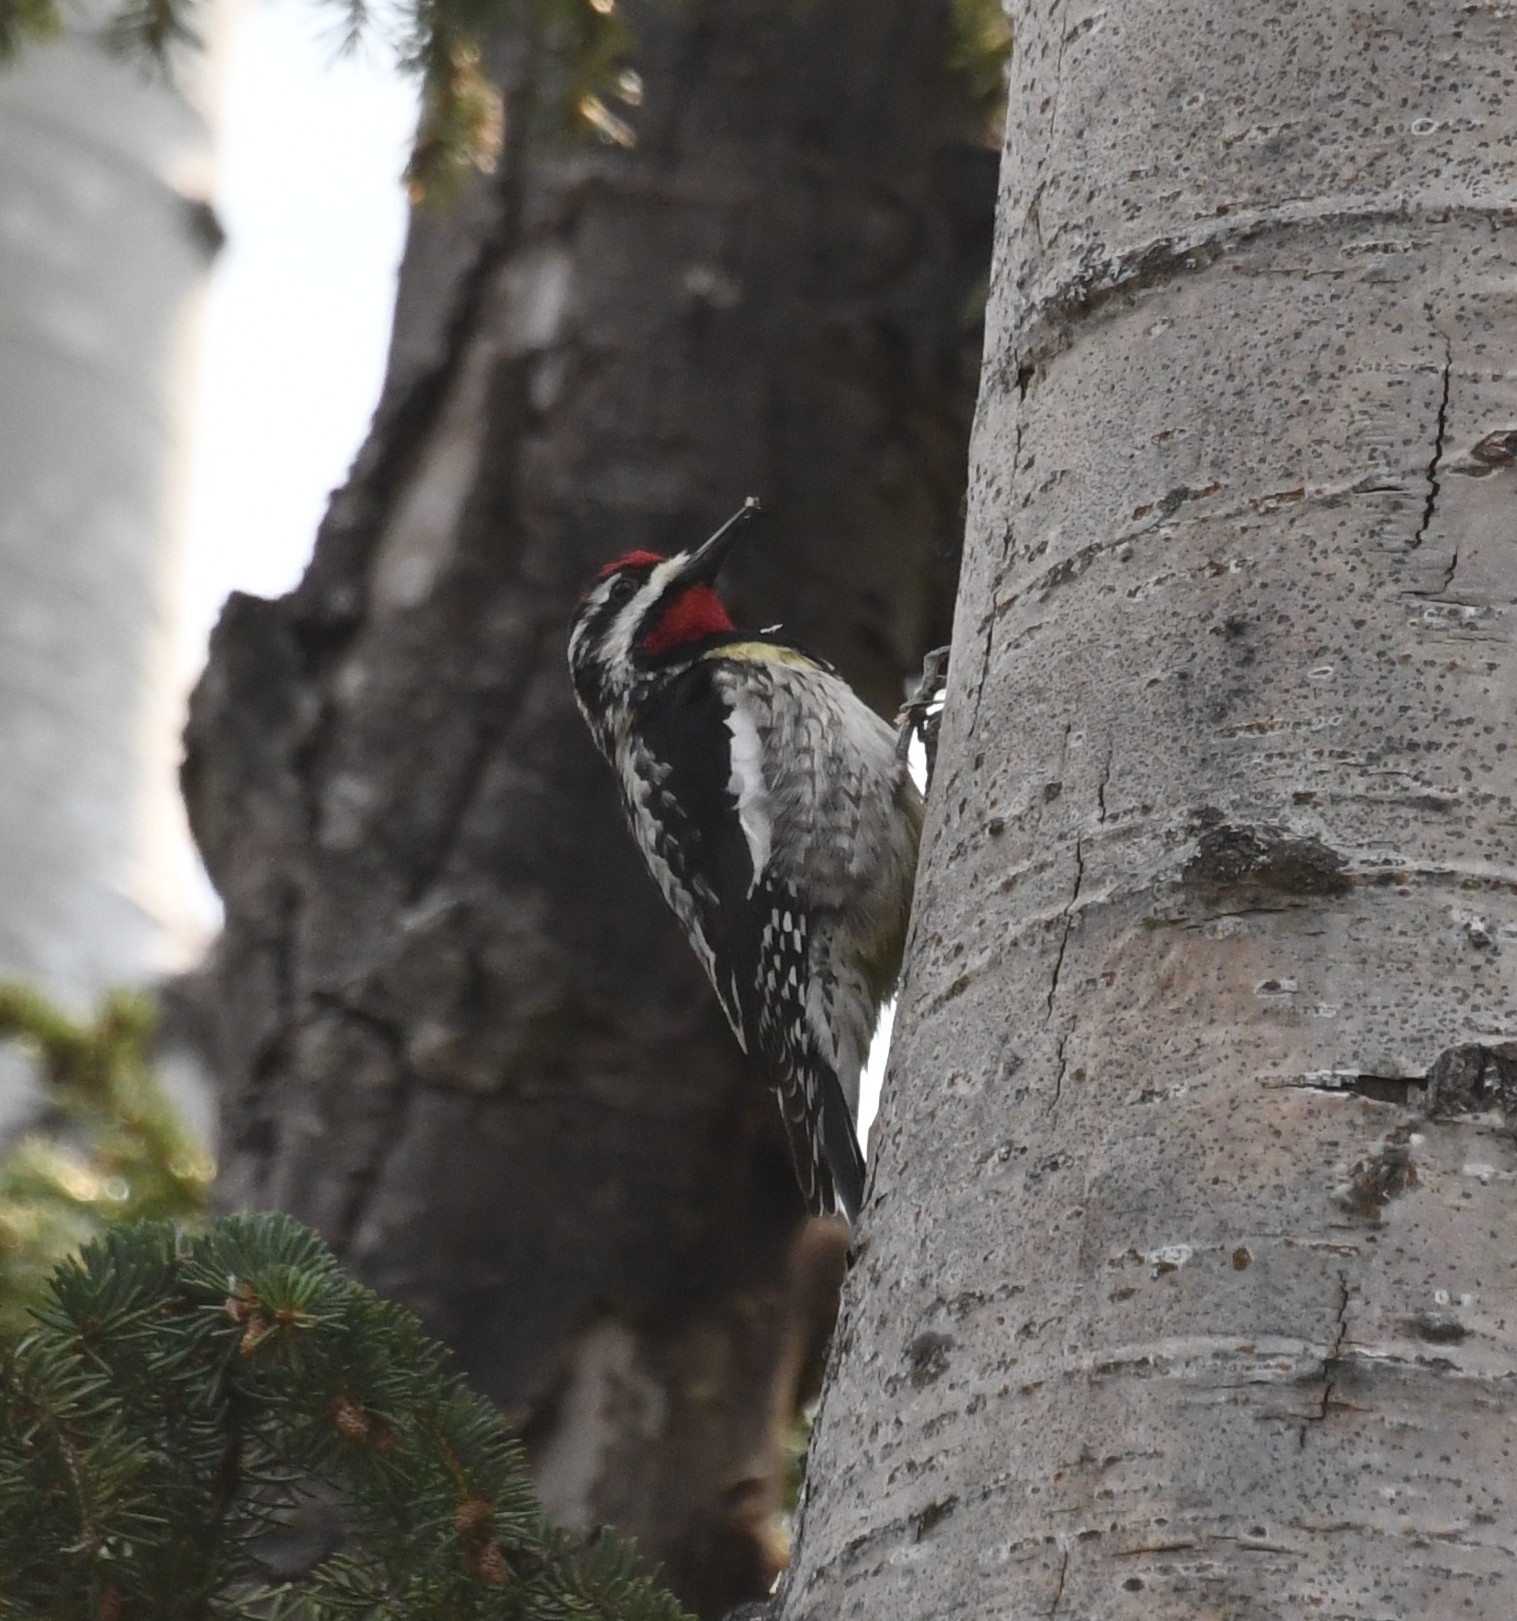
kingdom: Animalia
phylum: Chordata
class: Aves
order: Piciformes
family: Picidae
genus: Sphyrapicus
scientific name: Sphyrapicus varius
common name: Yellow-bellied sapsucker
